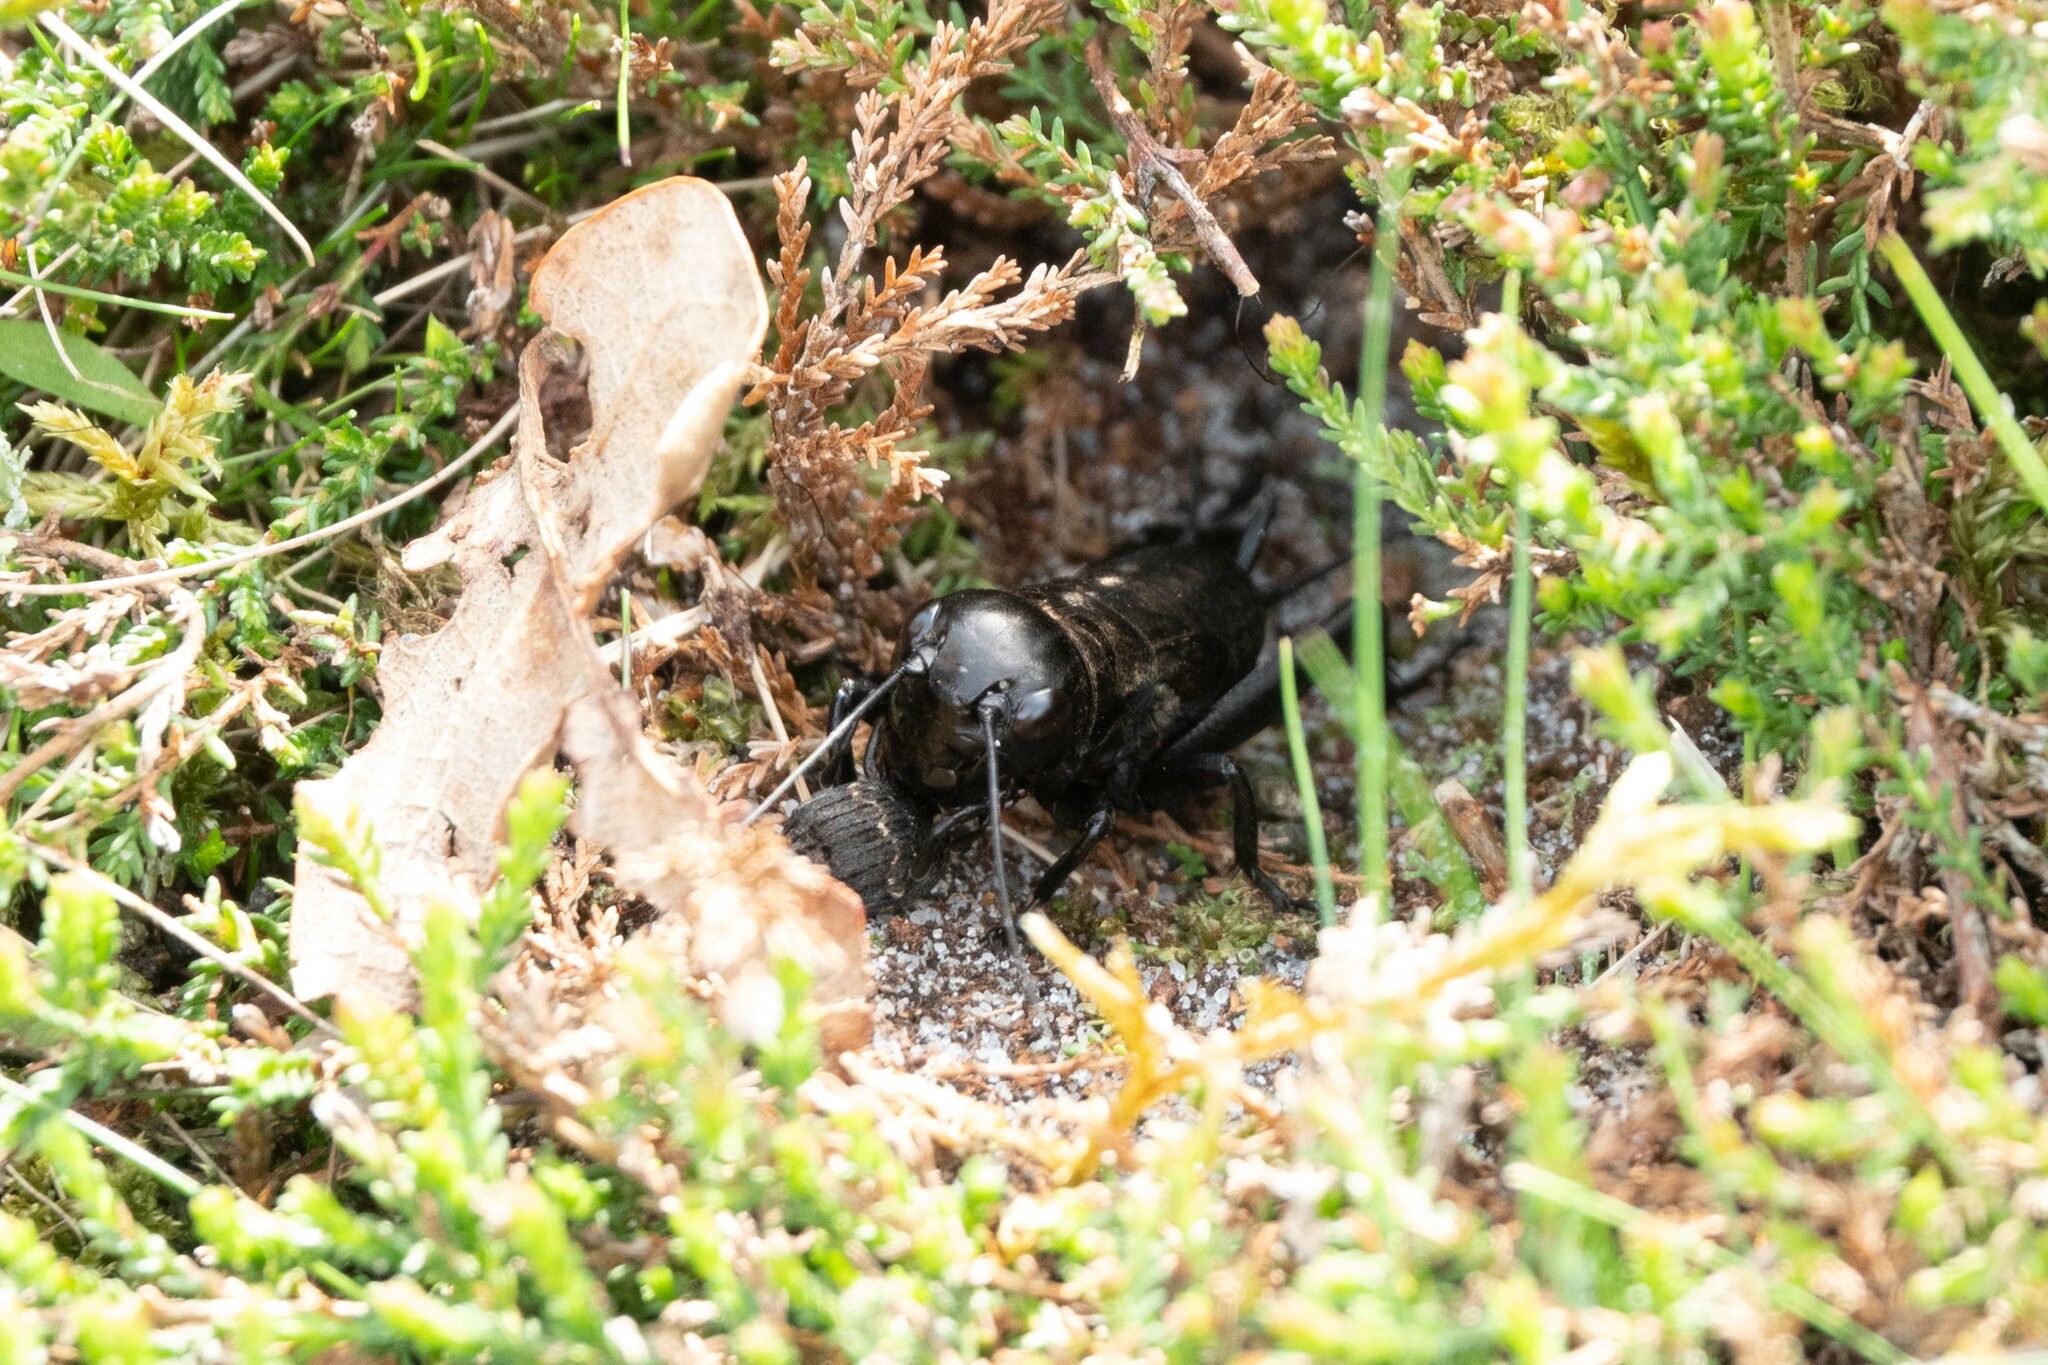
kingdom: Animalia
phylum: Arthropoda
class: Insecta
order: Orthoptera
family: Gryllidae
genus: Gryllus
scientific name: Gryllus campestris
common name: Field cricket
